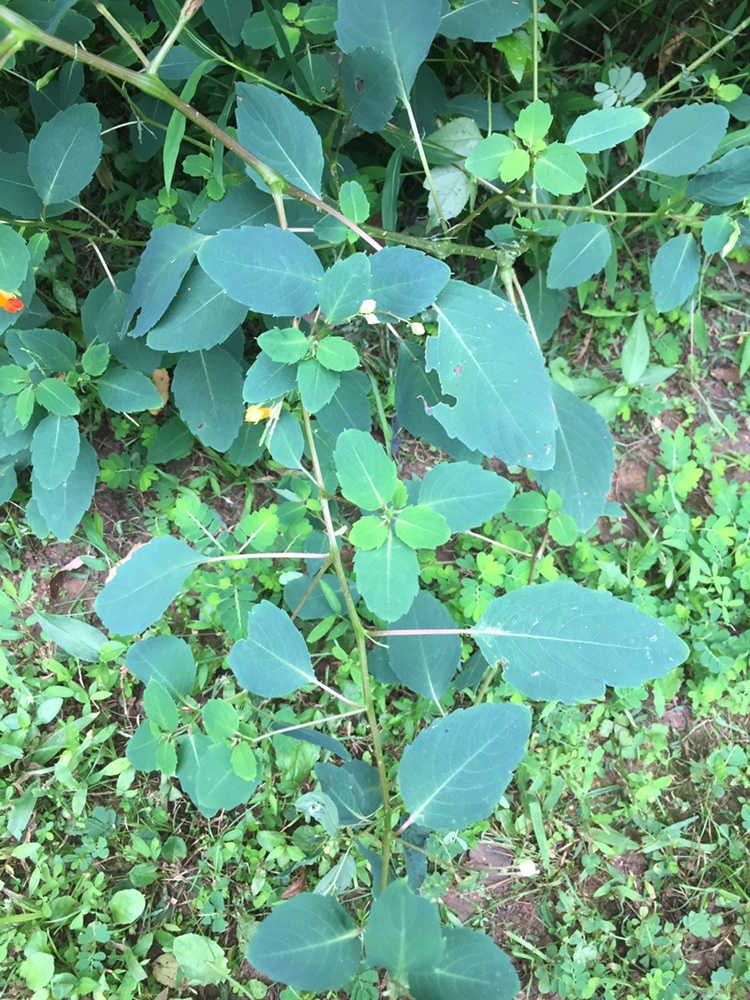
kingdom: Plantae
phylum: Tracheophyta
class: Magnoliopsida
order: Ericales
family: Balsaminaceae
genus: Impatiens
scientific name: Impatiens capensis
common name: Orange balsam
